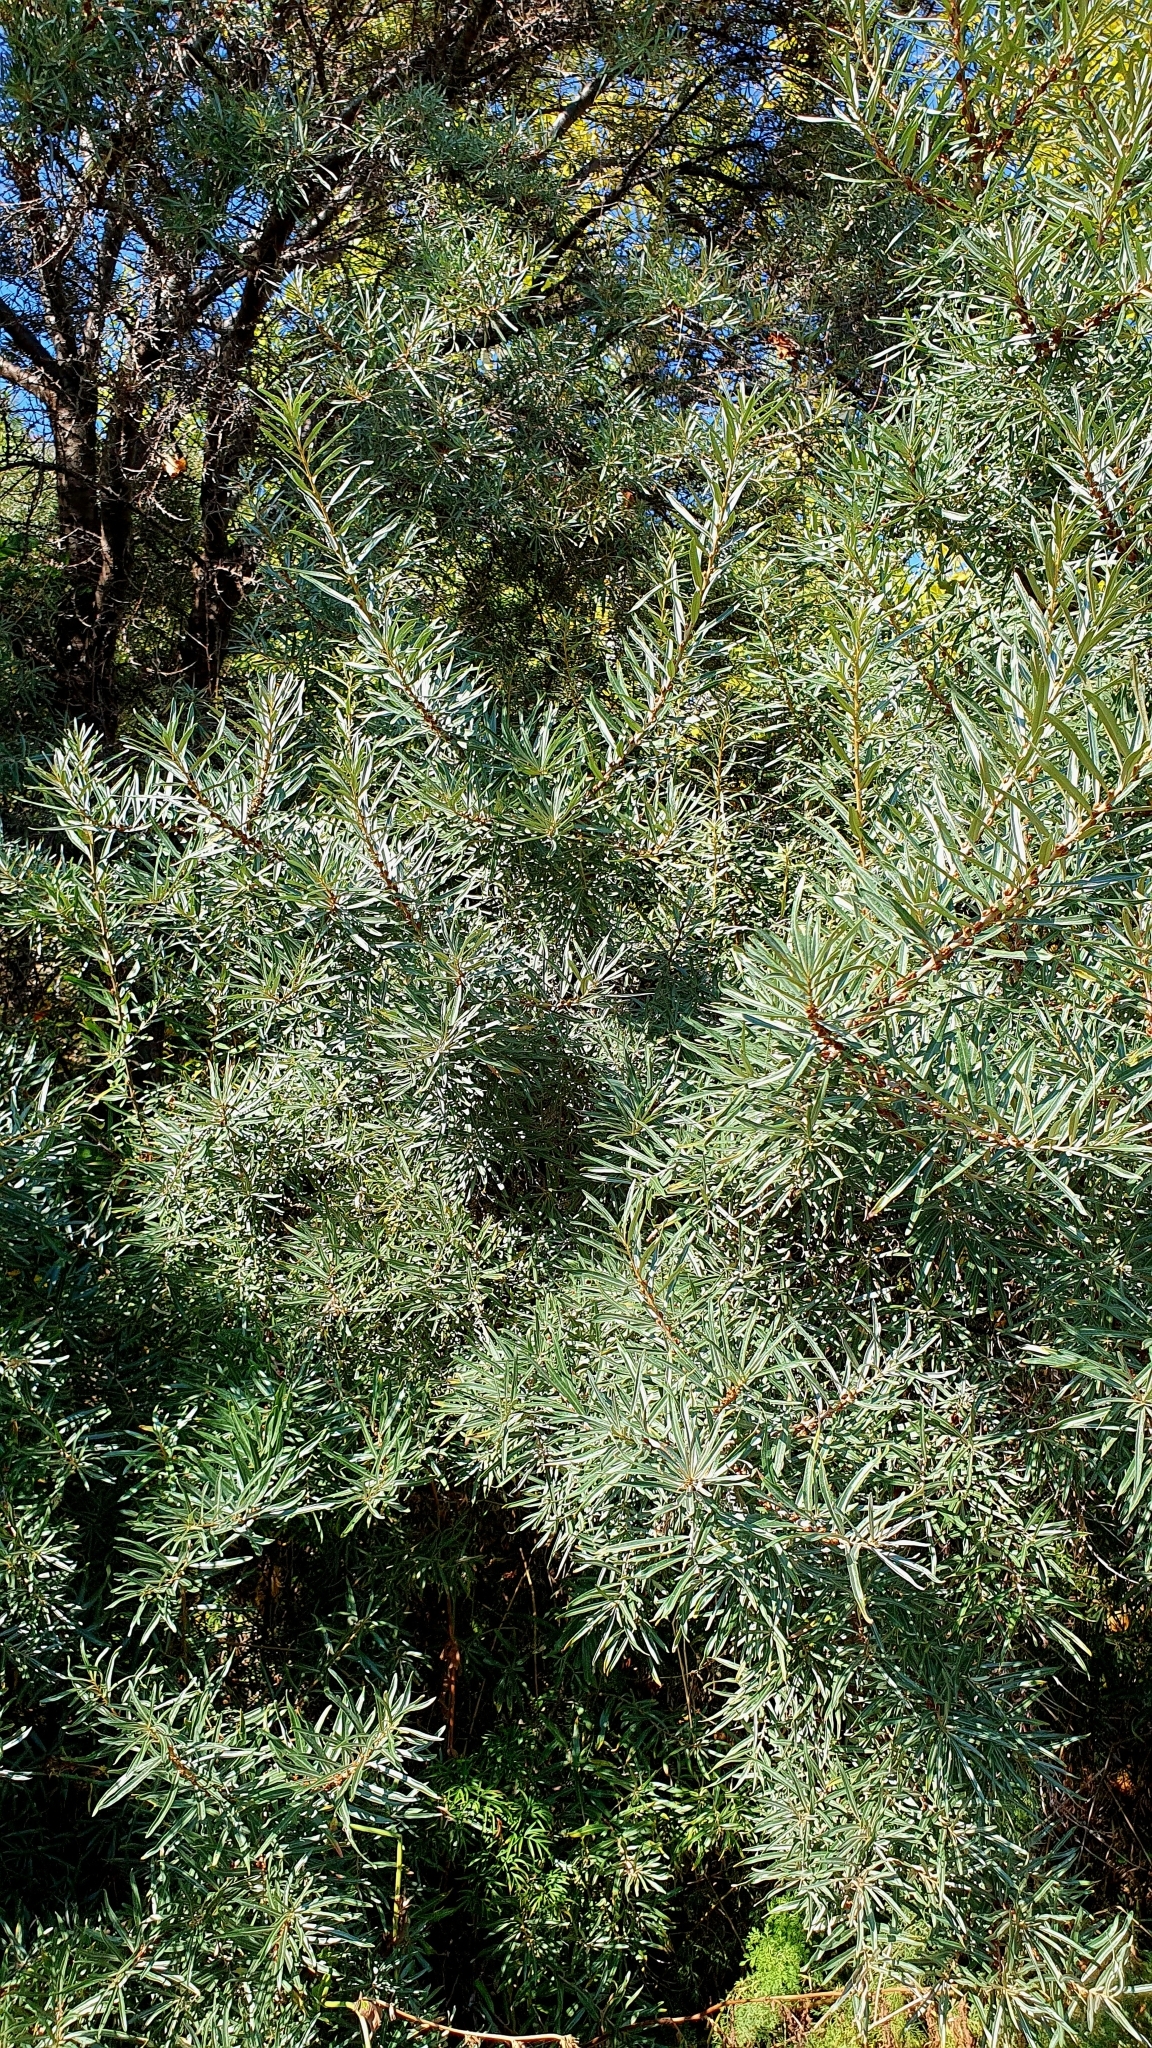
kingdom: Plantae
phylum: Tracheophyta
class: Magnoliopsida
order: Rosales
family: Elaeagnaceae
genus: Hippophae
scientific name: Hippophae rhamnoides
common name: Sea-buckthorn
